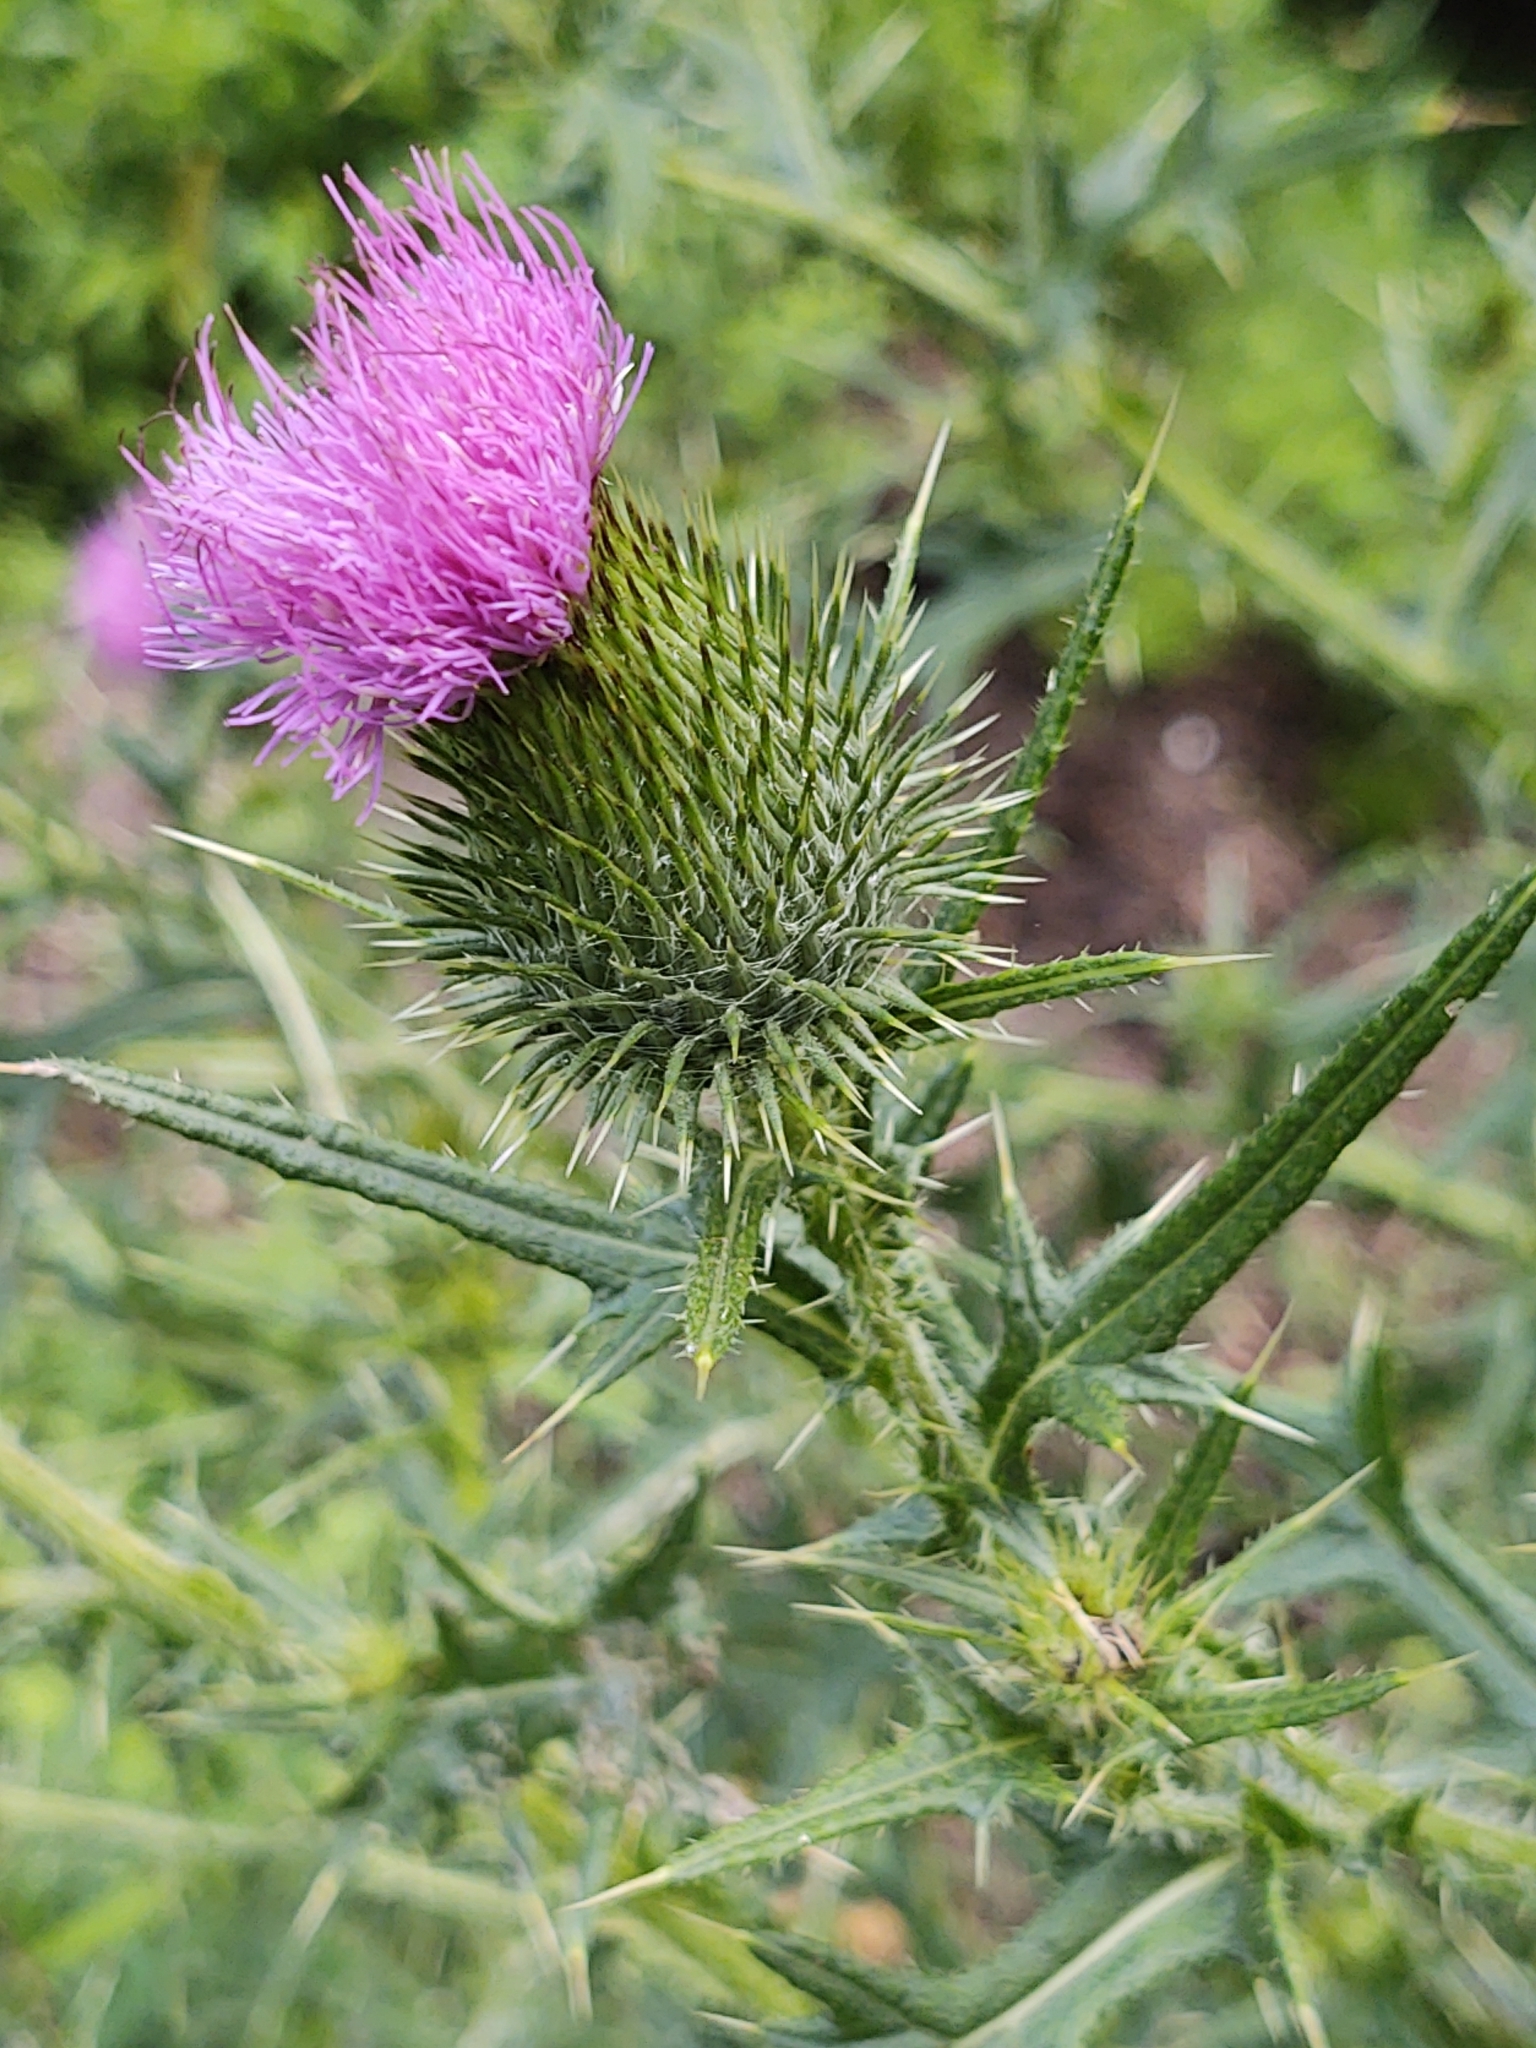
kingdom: Plantae
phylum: Tracheophyta
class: Magnoliopsida
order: Asterales
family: Asteraceae
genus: Cirsium
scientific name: Cirsium vulgare
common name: Bull thistle
